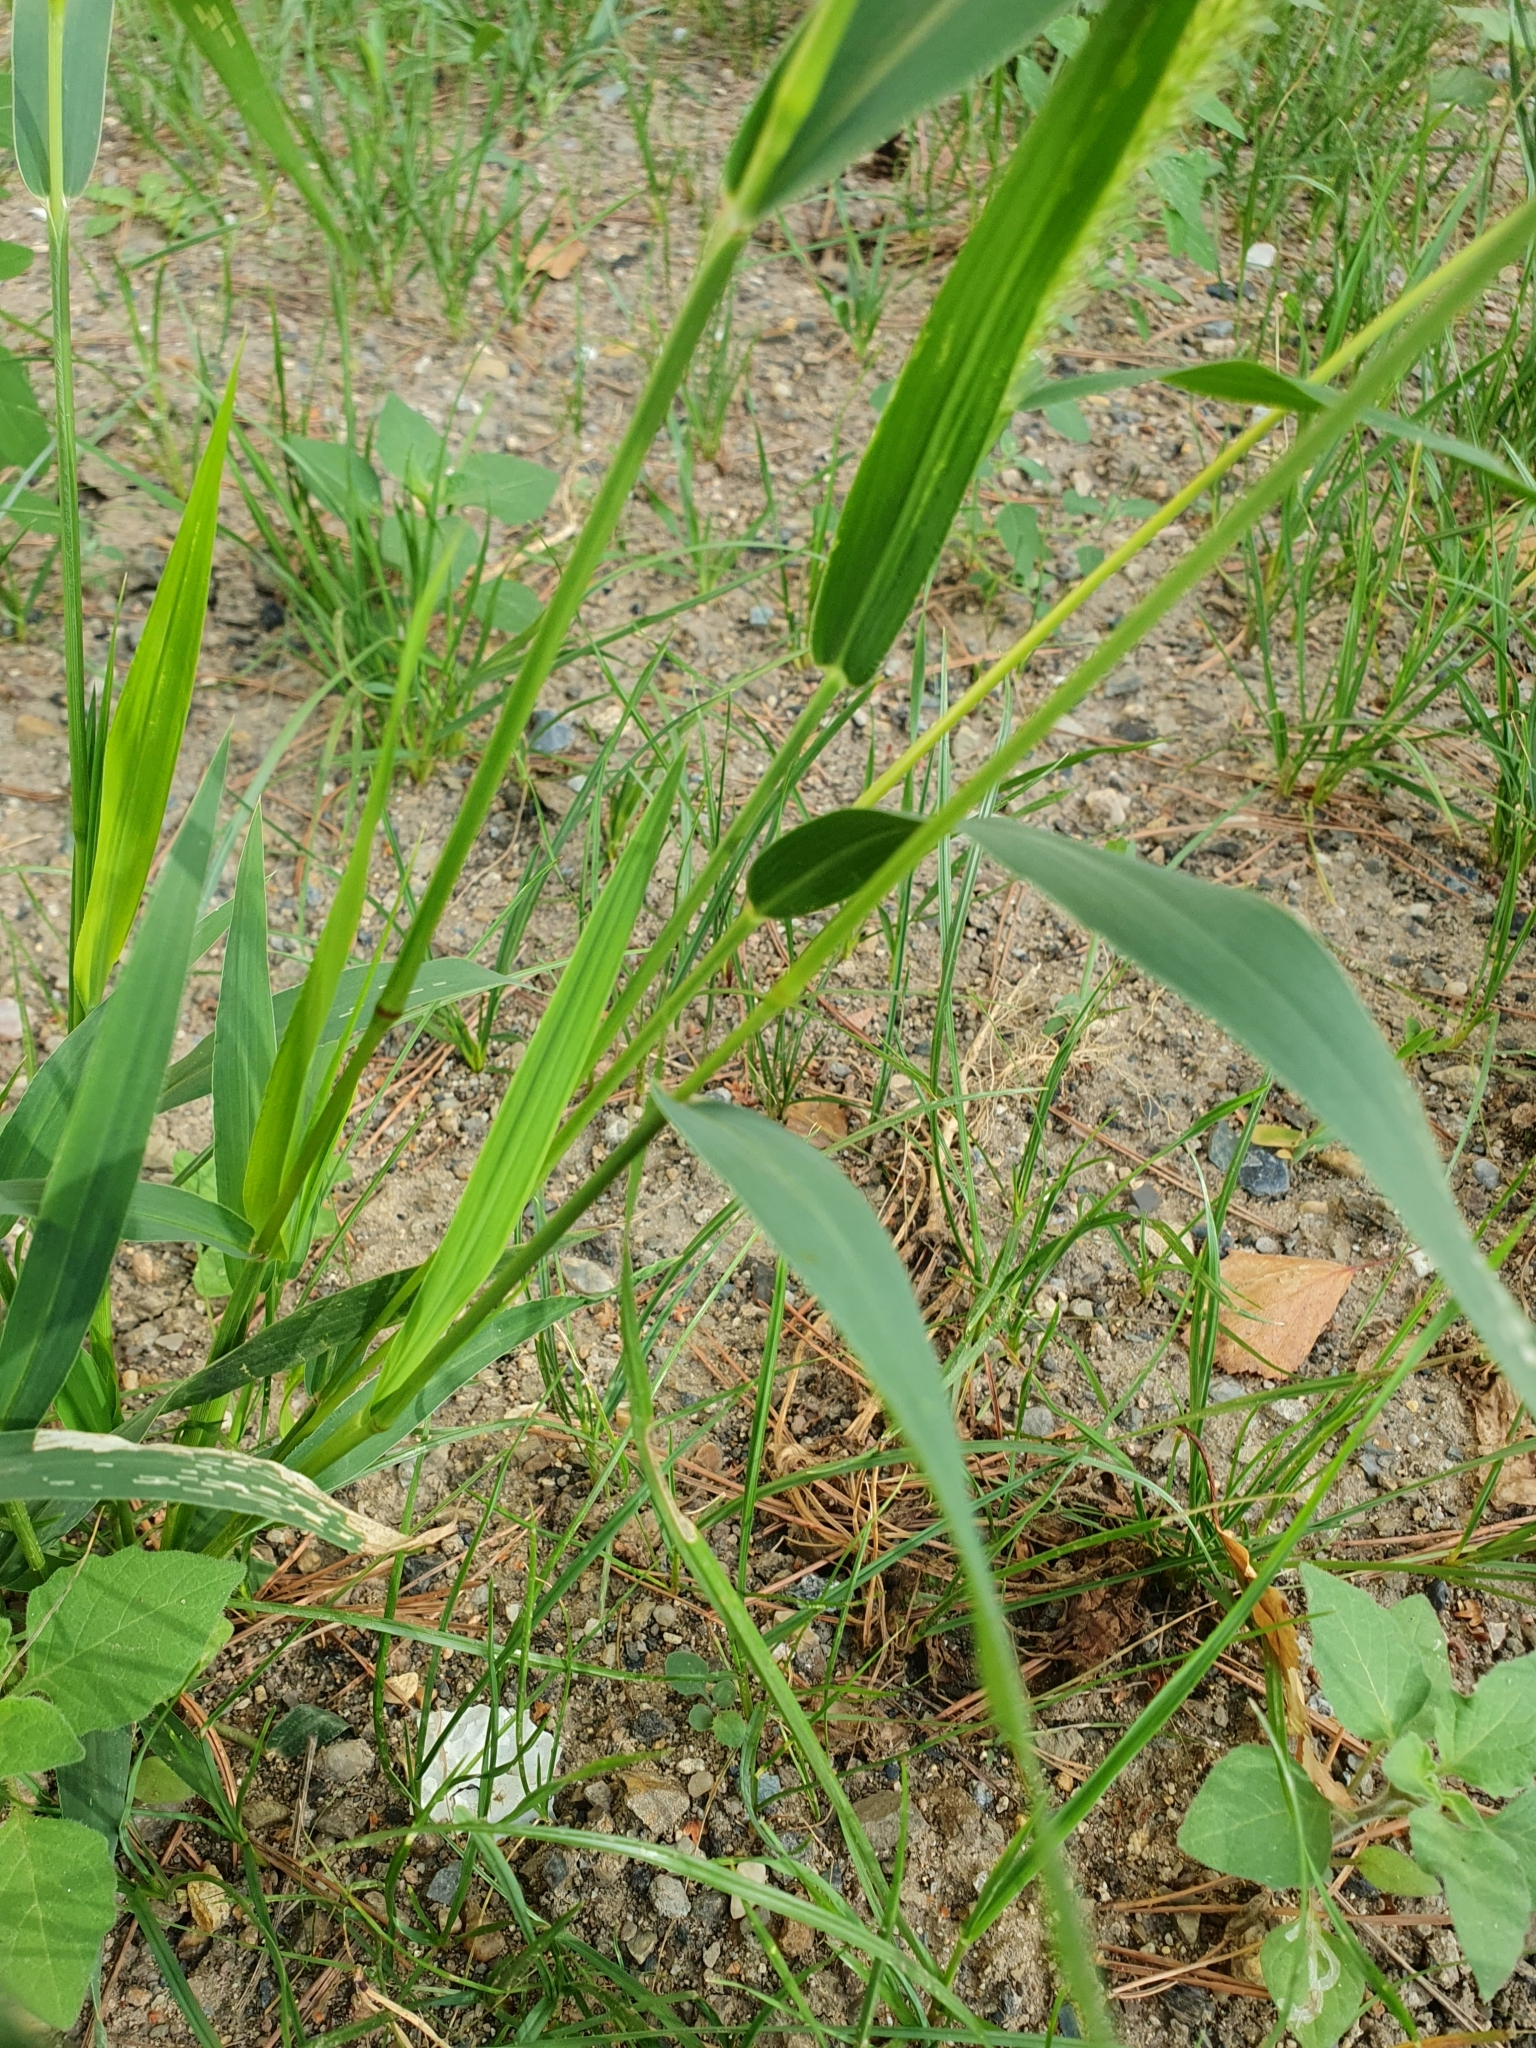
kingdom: Plantae
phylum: Tracheophyta
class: Liliopsida
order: Poales
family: Poaceae
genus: Setaria
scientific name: Setaria viridis
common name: Green bristlegrass
